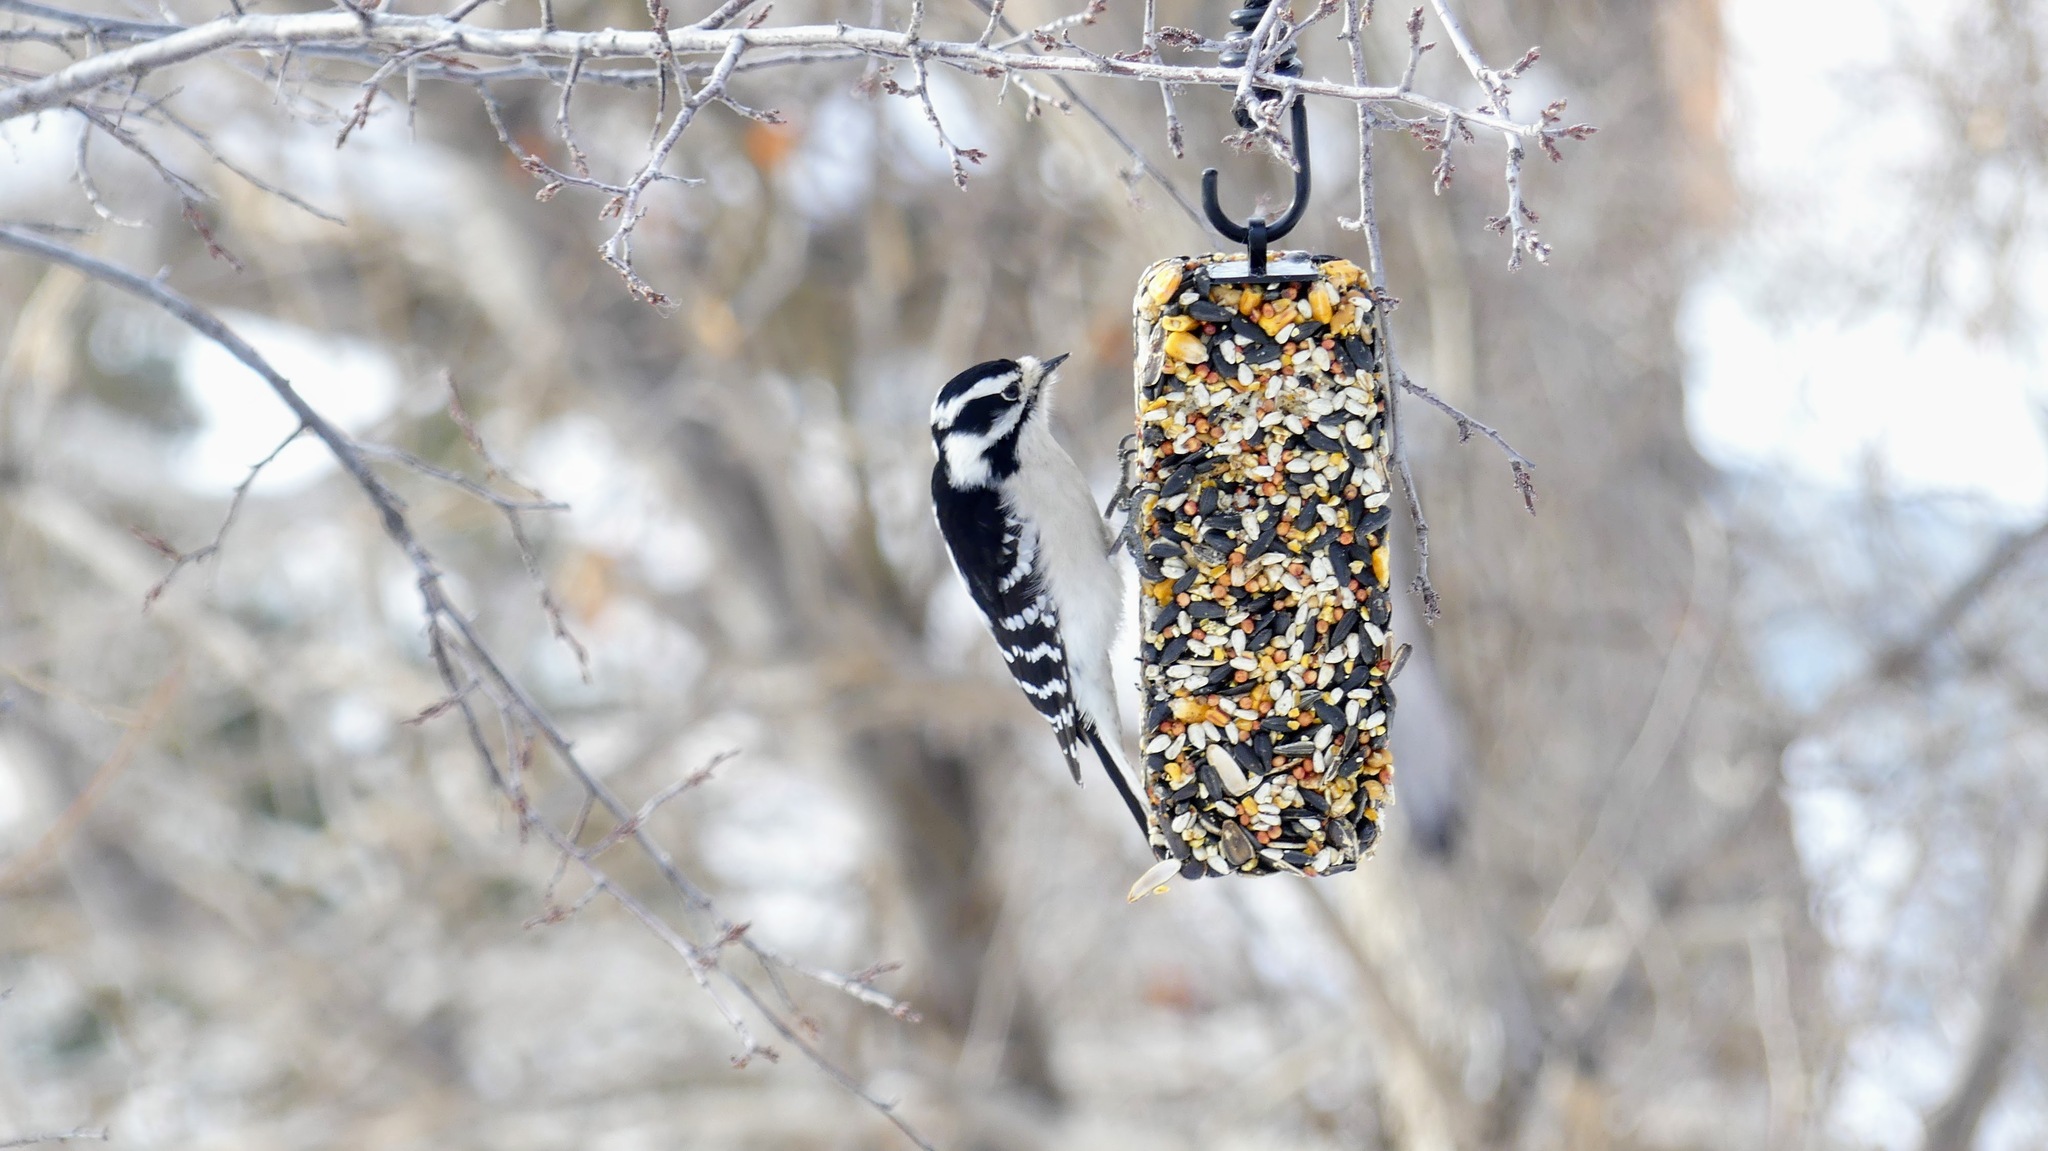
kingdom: Animalia
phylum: Chordata
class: Aves
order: Piciformes
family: Picidae
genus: Dryobates
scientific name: Dryobates pubescens
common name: Downy woodpecker
